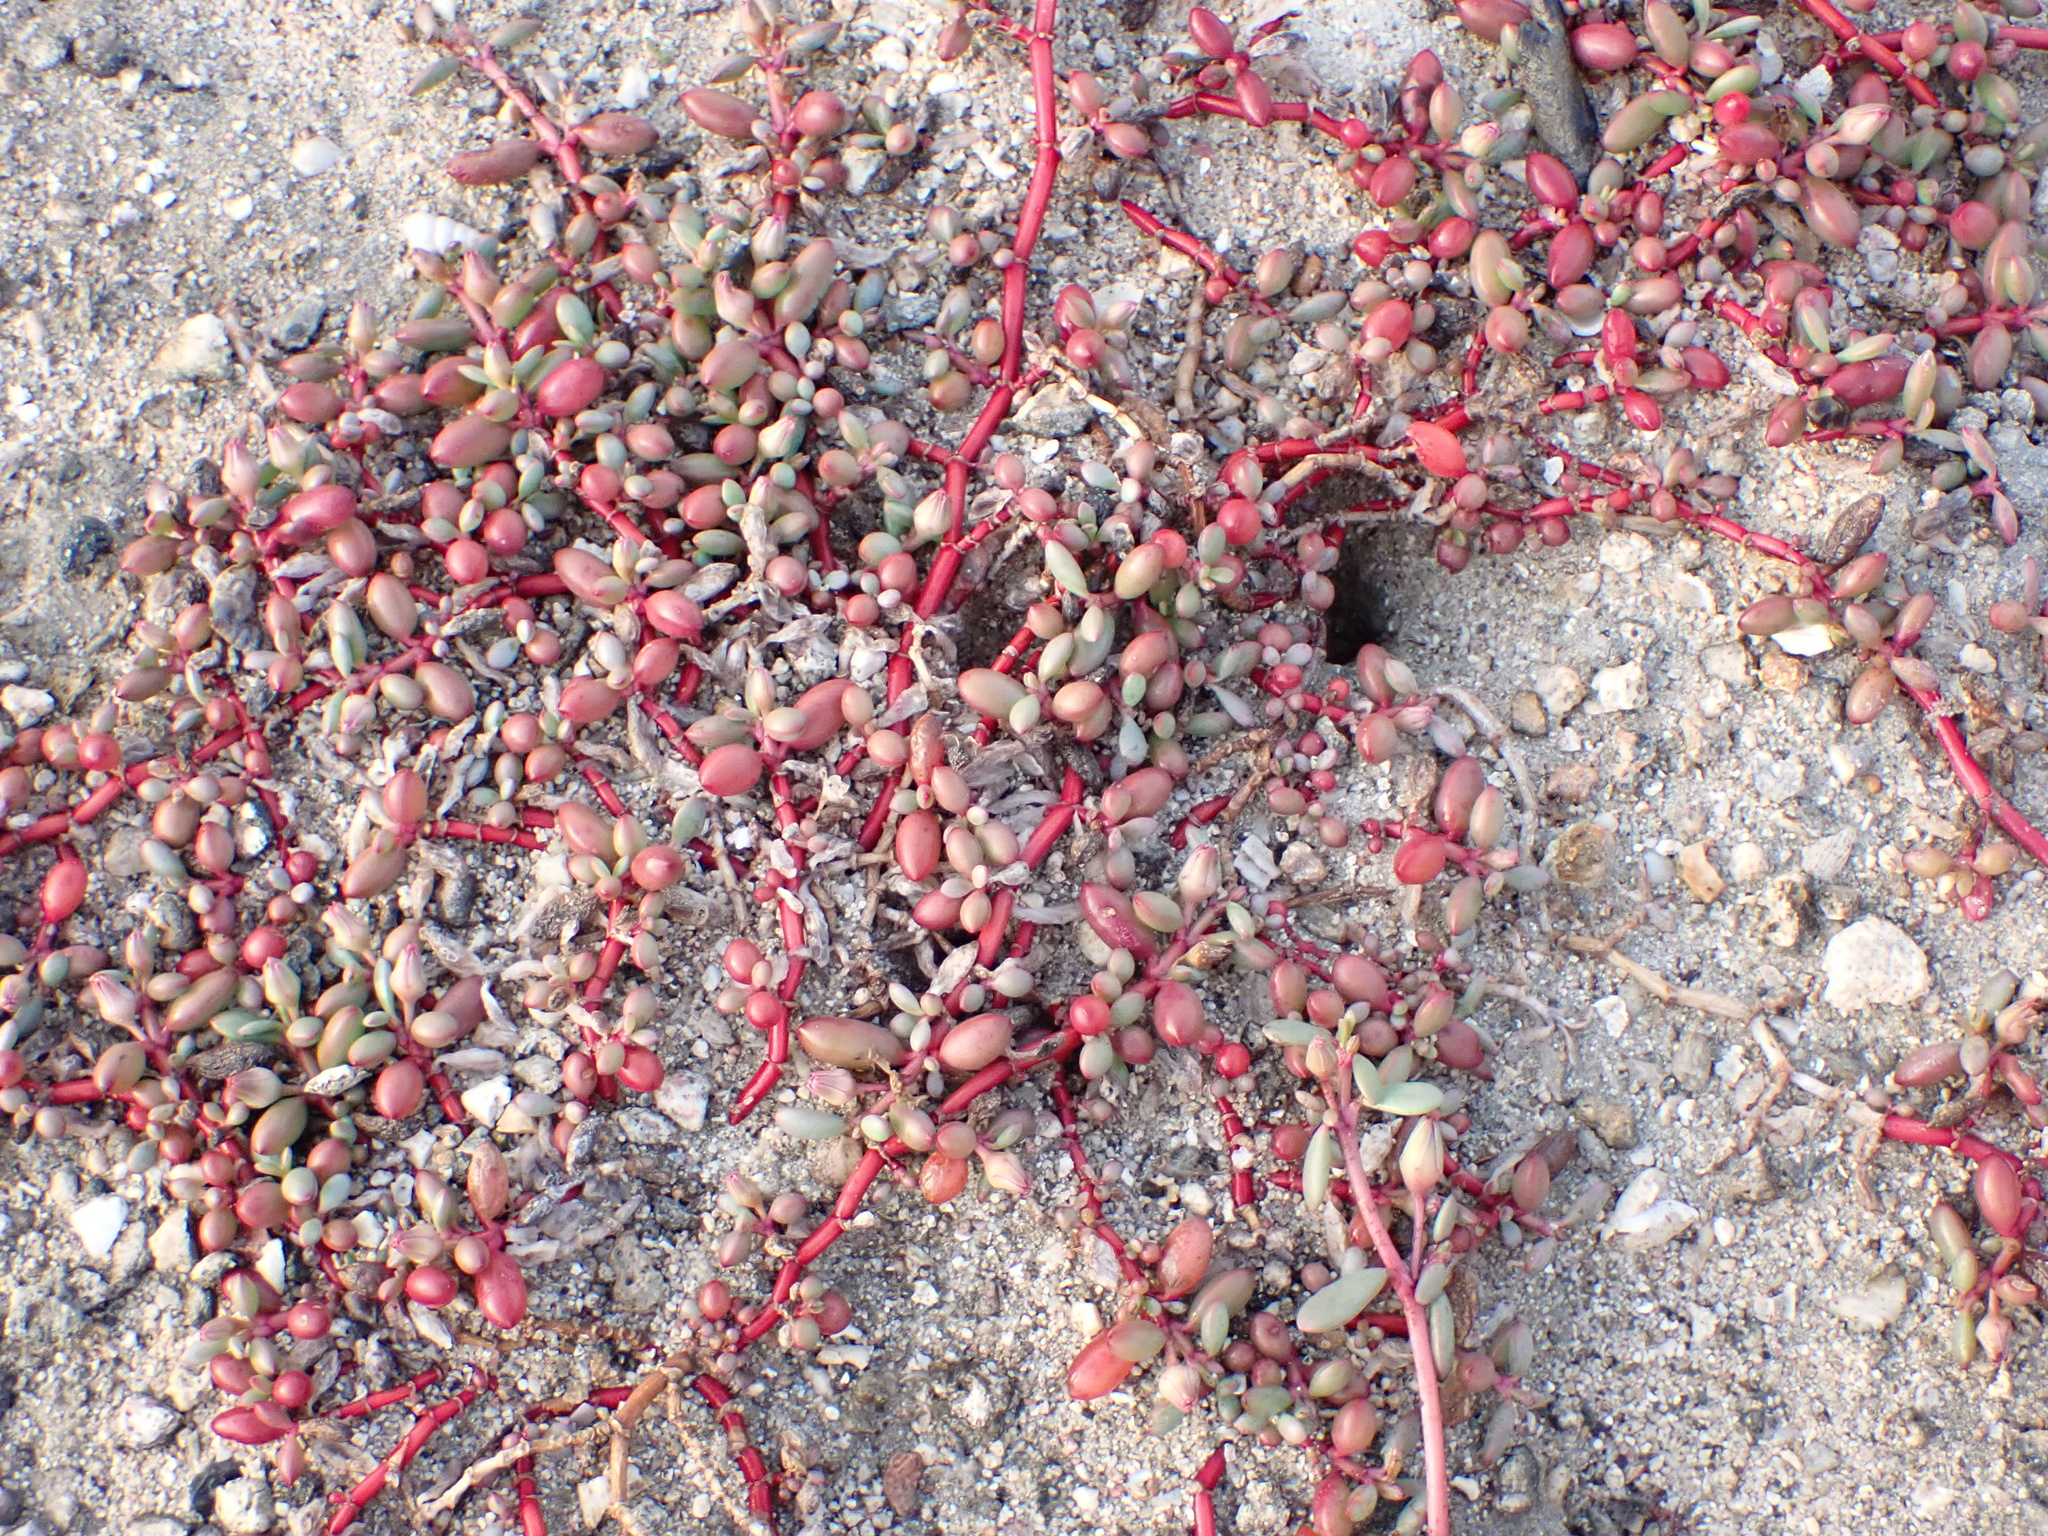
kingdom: Plantae
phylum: Tracheophyta
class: Magnoliopsida
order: Caryophyllales
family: Aizoaceae
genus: Sesuvium
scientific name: Sesuvium portulacastrum
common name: Sea-purslane
